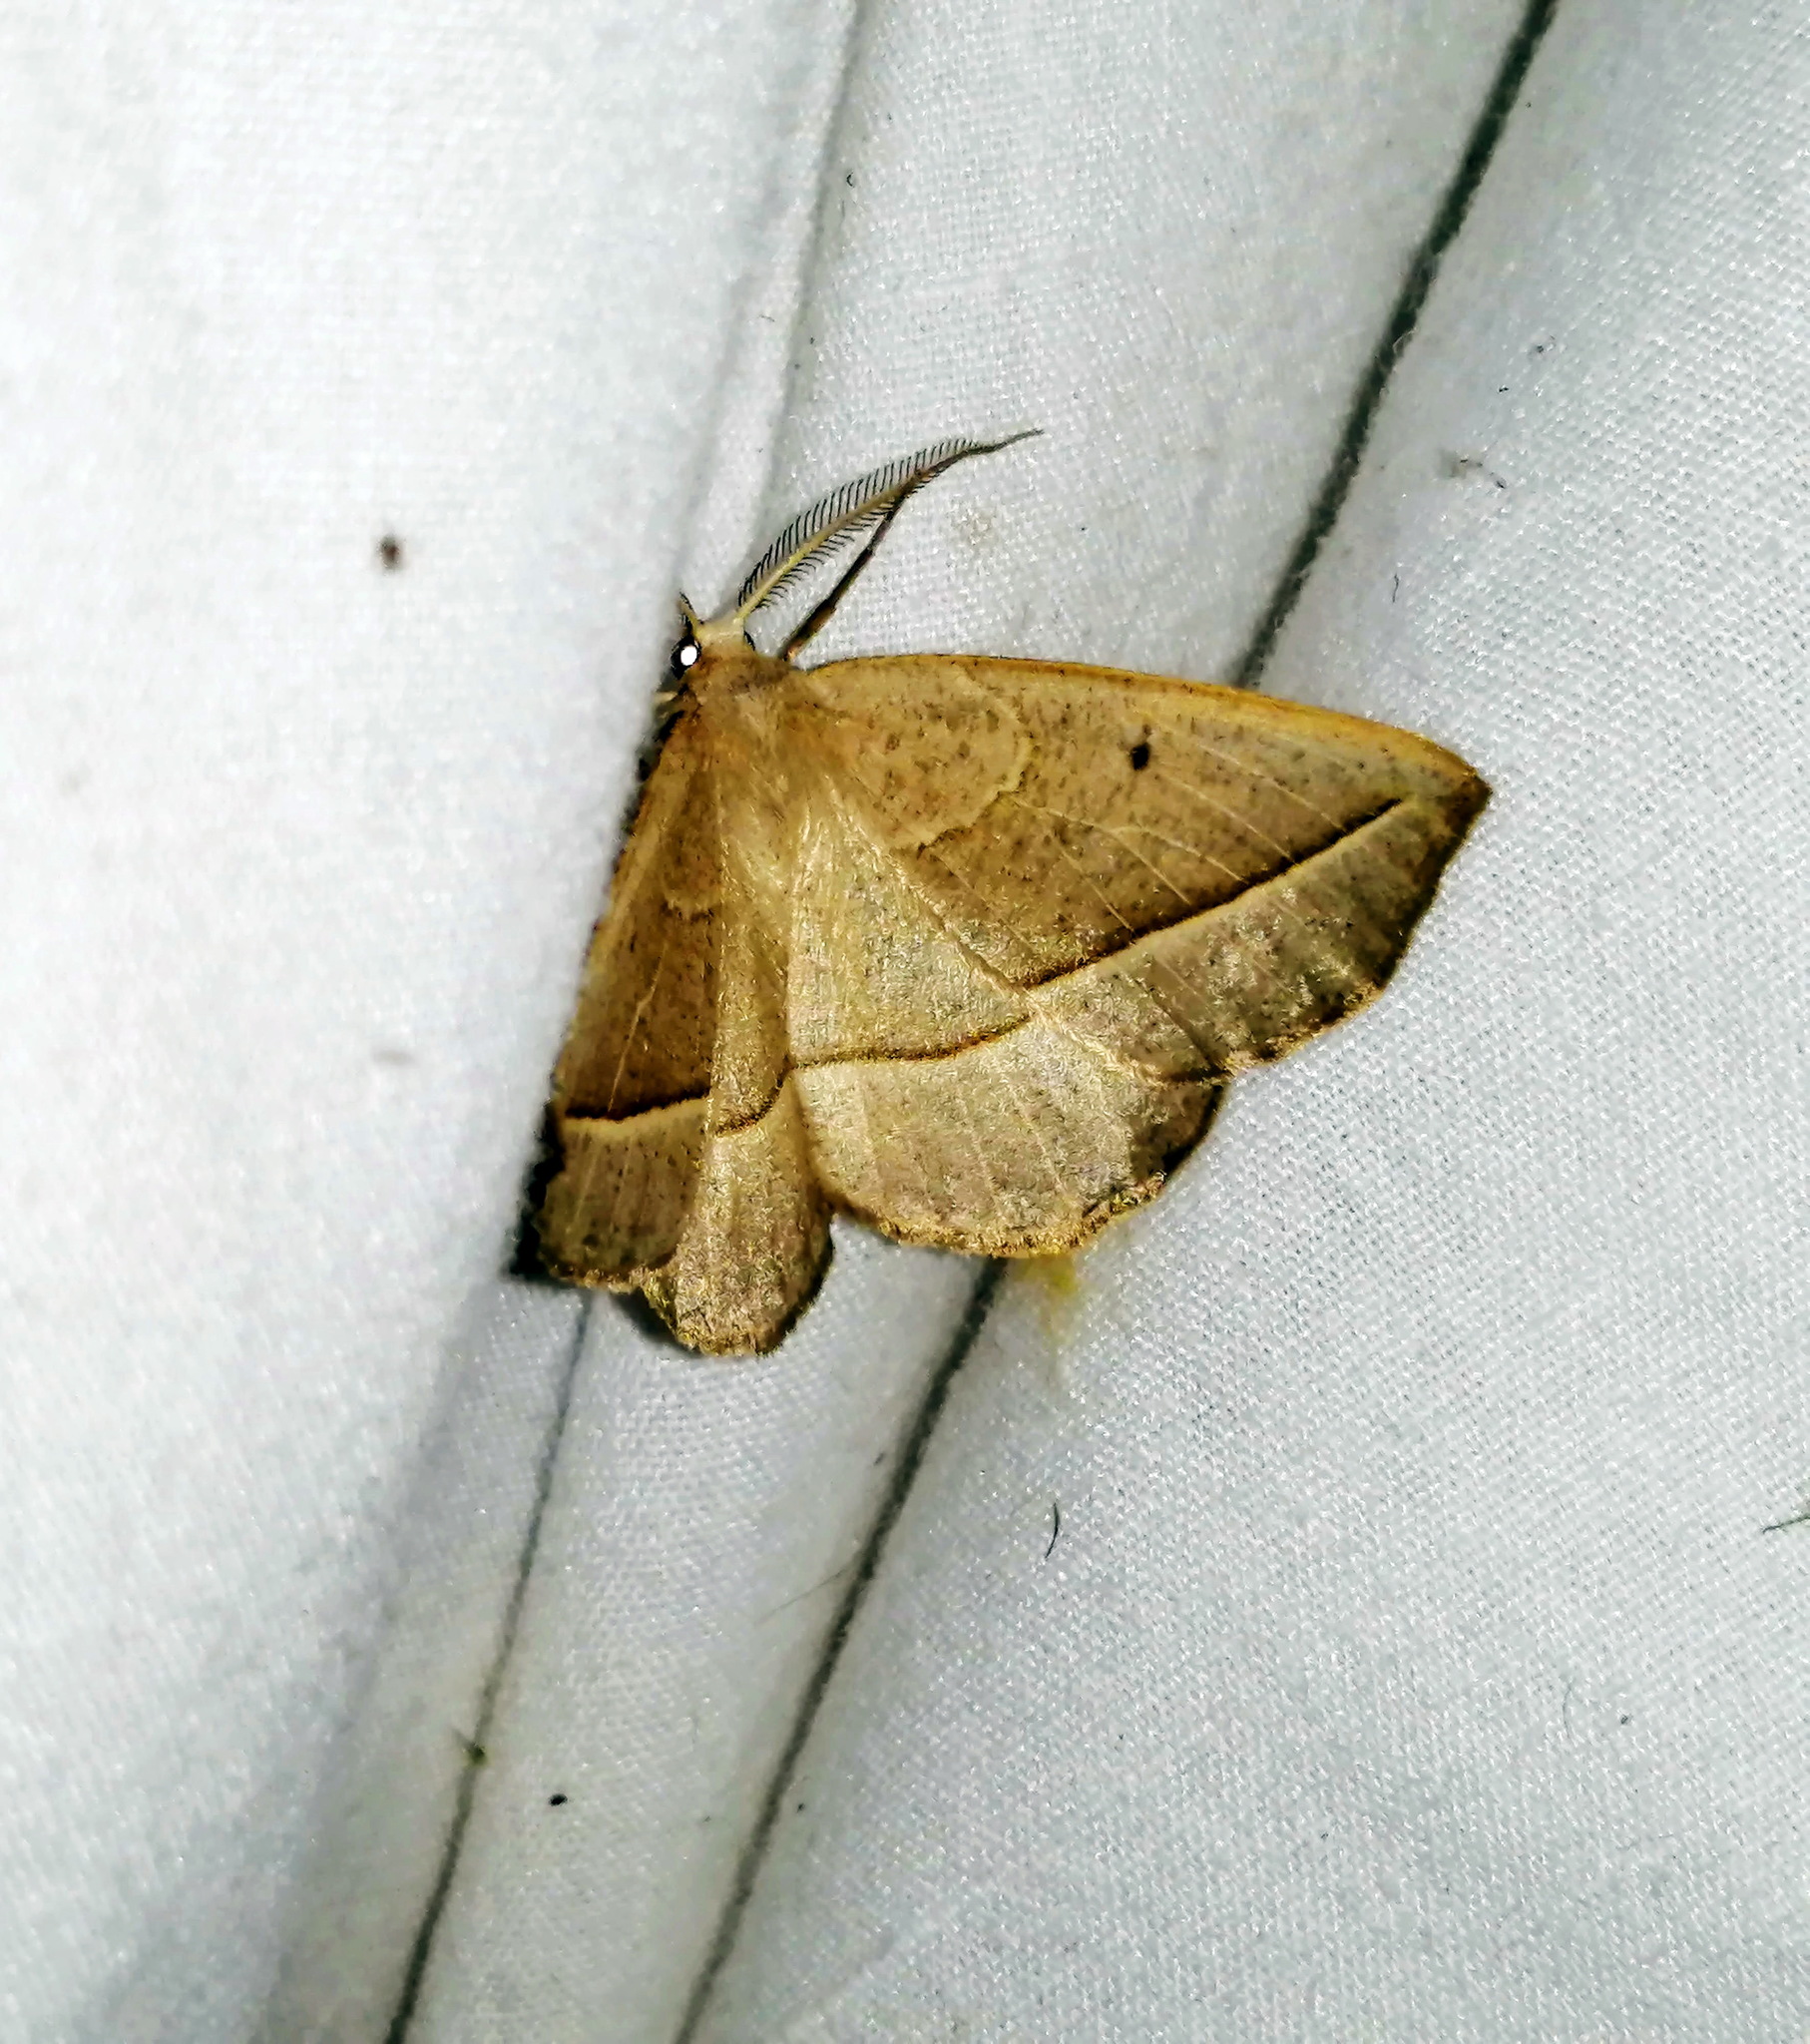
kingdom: Animalia
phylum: Arthropoda
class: Insecta
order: Lepidoptera
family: Geometridae
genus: Eusarca
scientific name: Eusarca confusaria
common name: Confused eusarca
